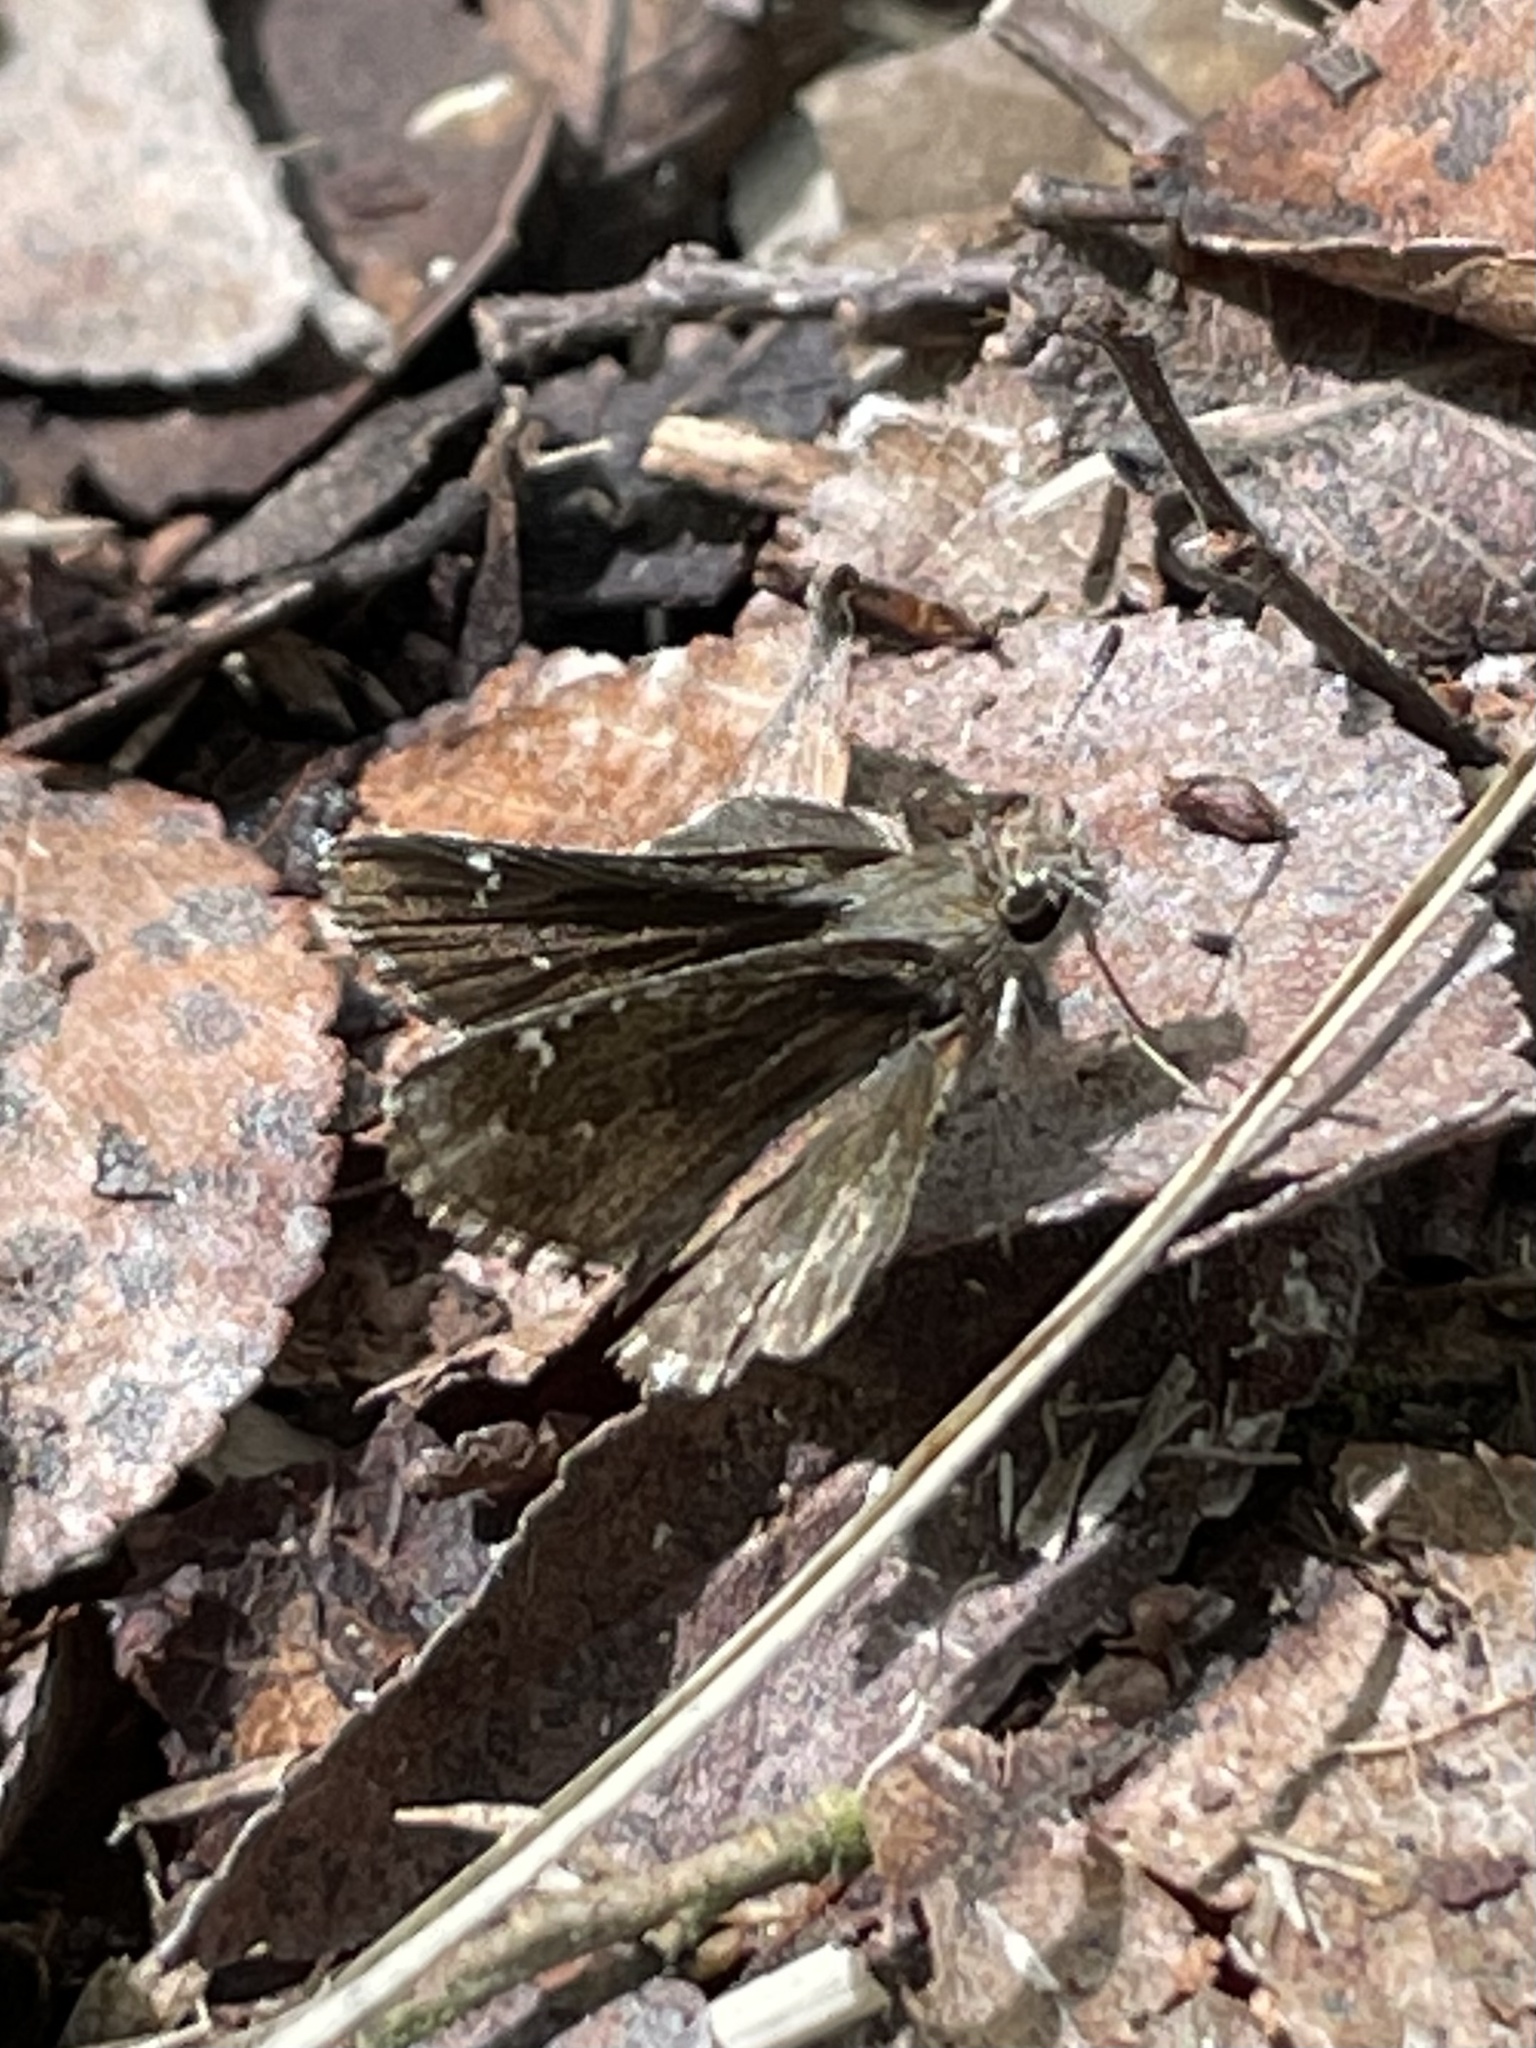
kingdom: Animalia
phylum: Arthropoda
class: Insecta
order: Lepidoptera
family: Hesperiidae
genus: Mastor
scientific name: Mastor nysa
